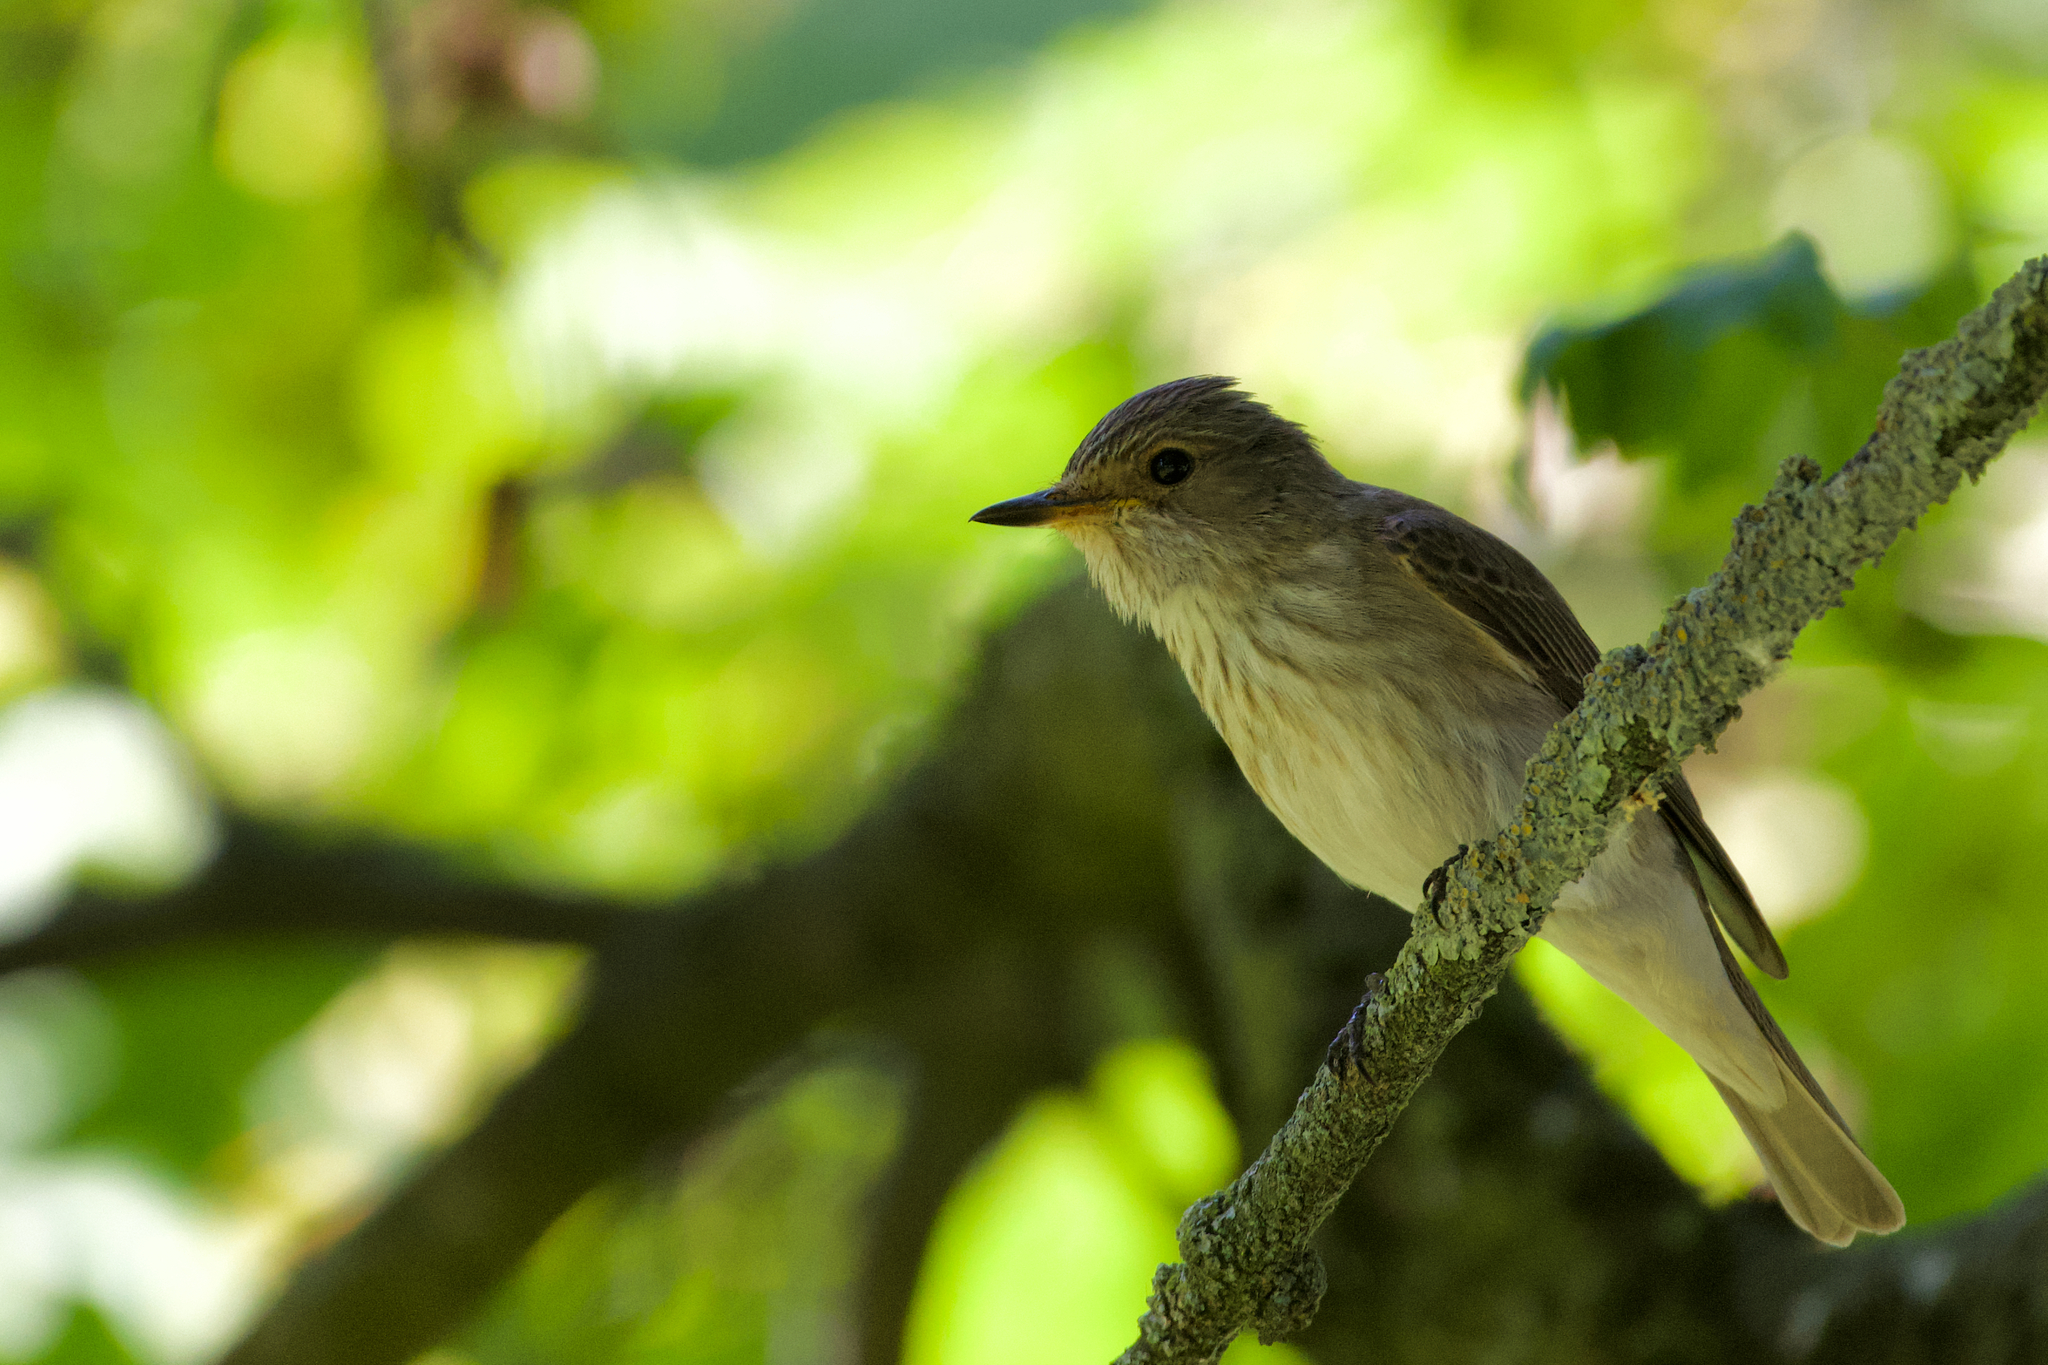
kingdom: Animalia
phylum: Chordata
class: Aves
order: Passeriformes
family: Muscicapidae
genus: Muscicapa
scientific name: Muscicapa striata
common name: Spotted flycatcher
